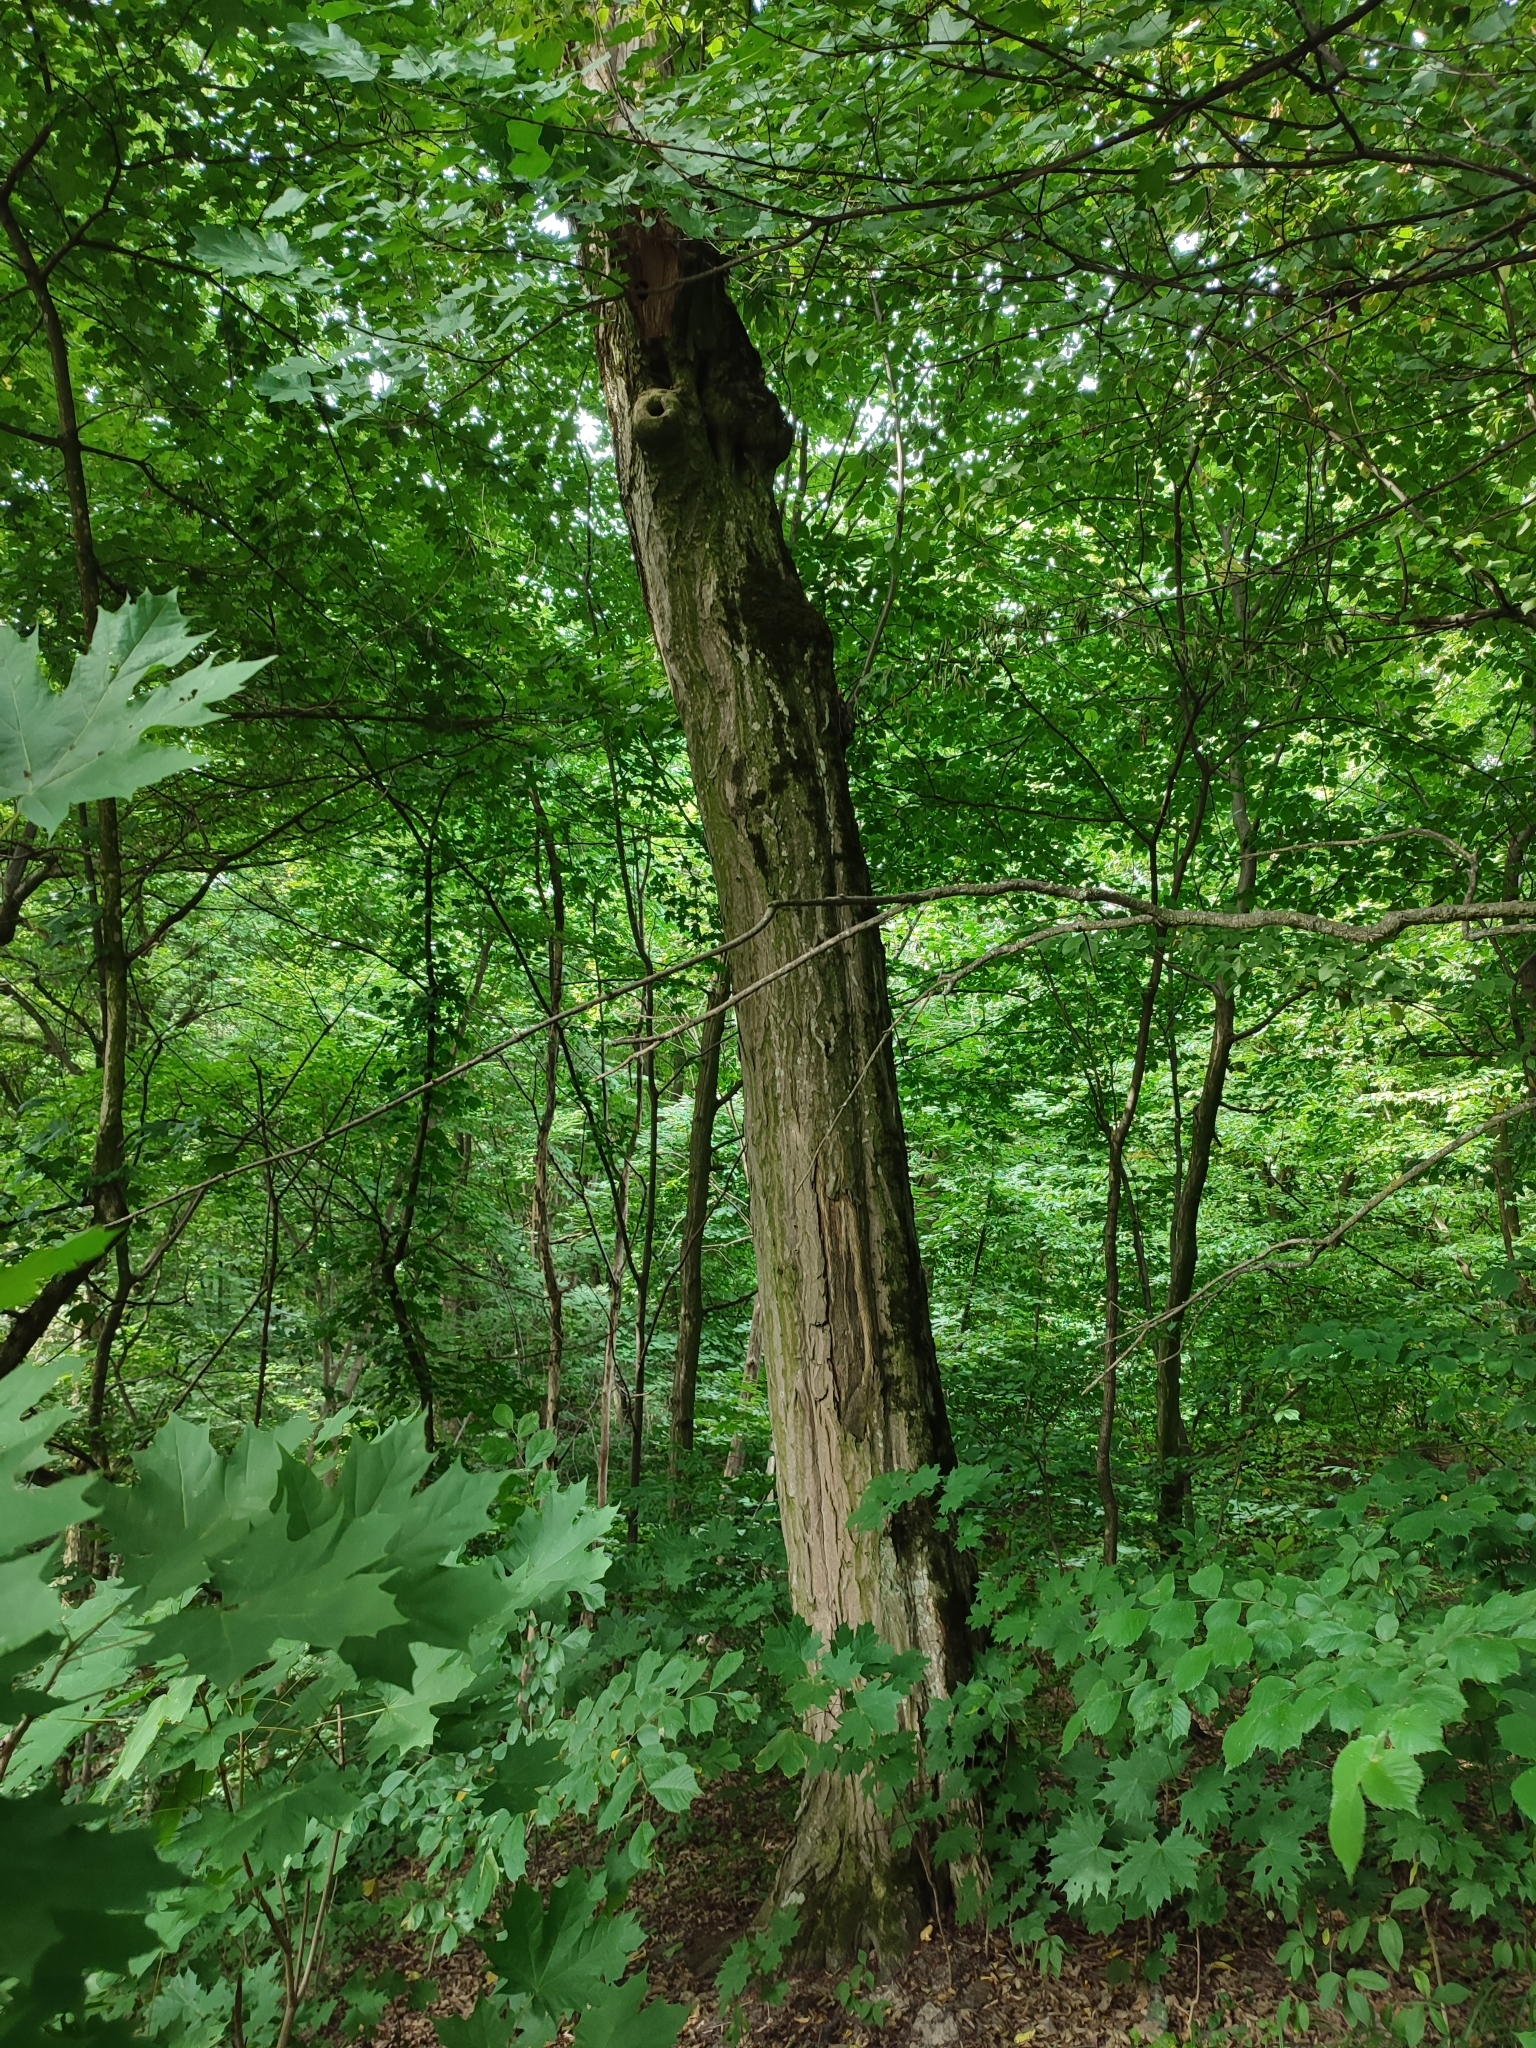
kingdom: Plantae
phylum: Tracheophyta
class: Magnoliopsida
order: Fagales
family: Betulaceae
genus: Carpinus
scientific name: Carpinus betulus
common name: Hornbeam
